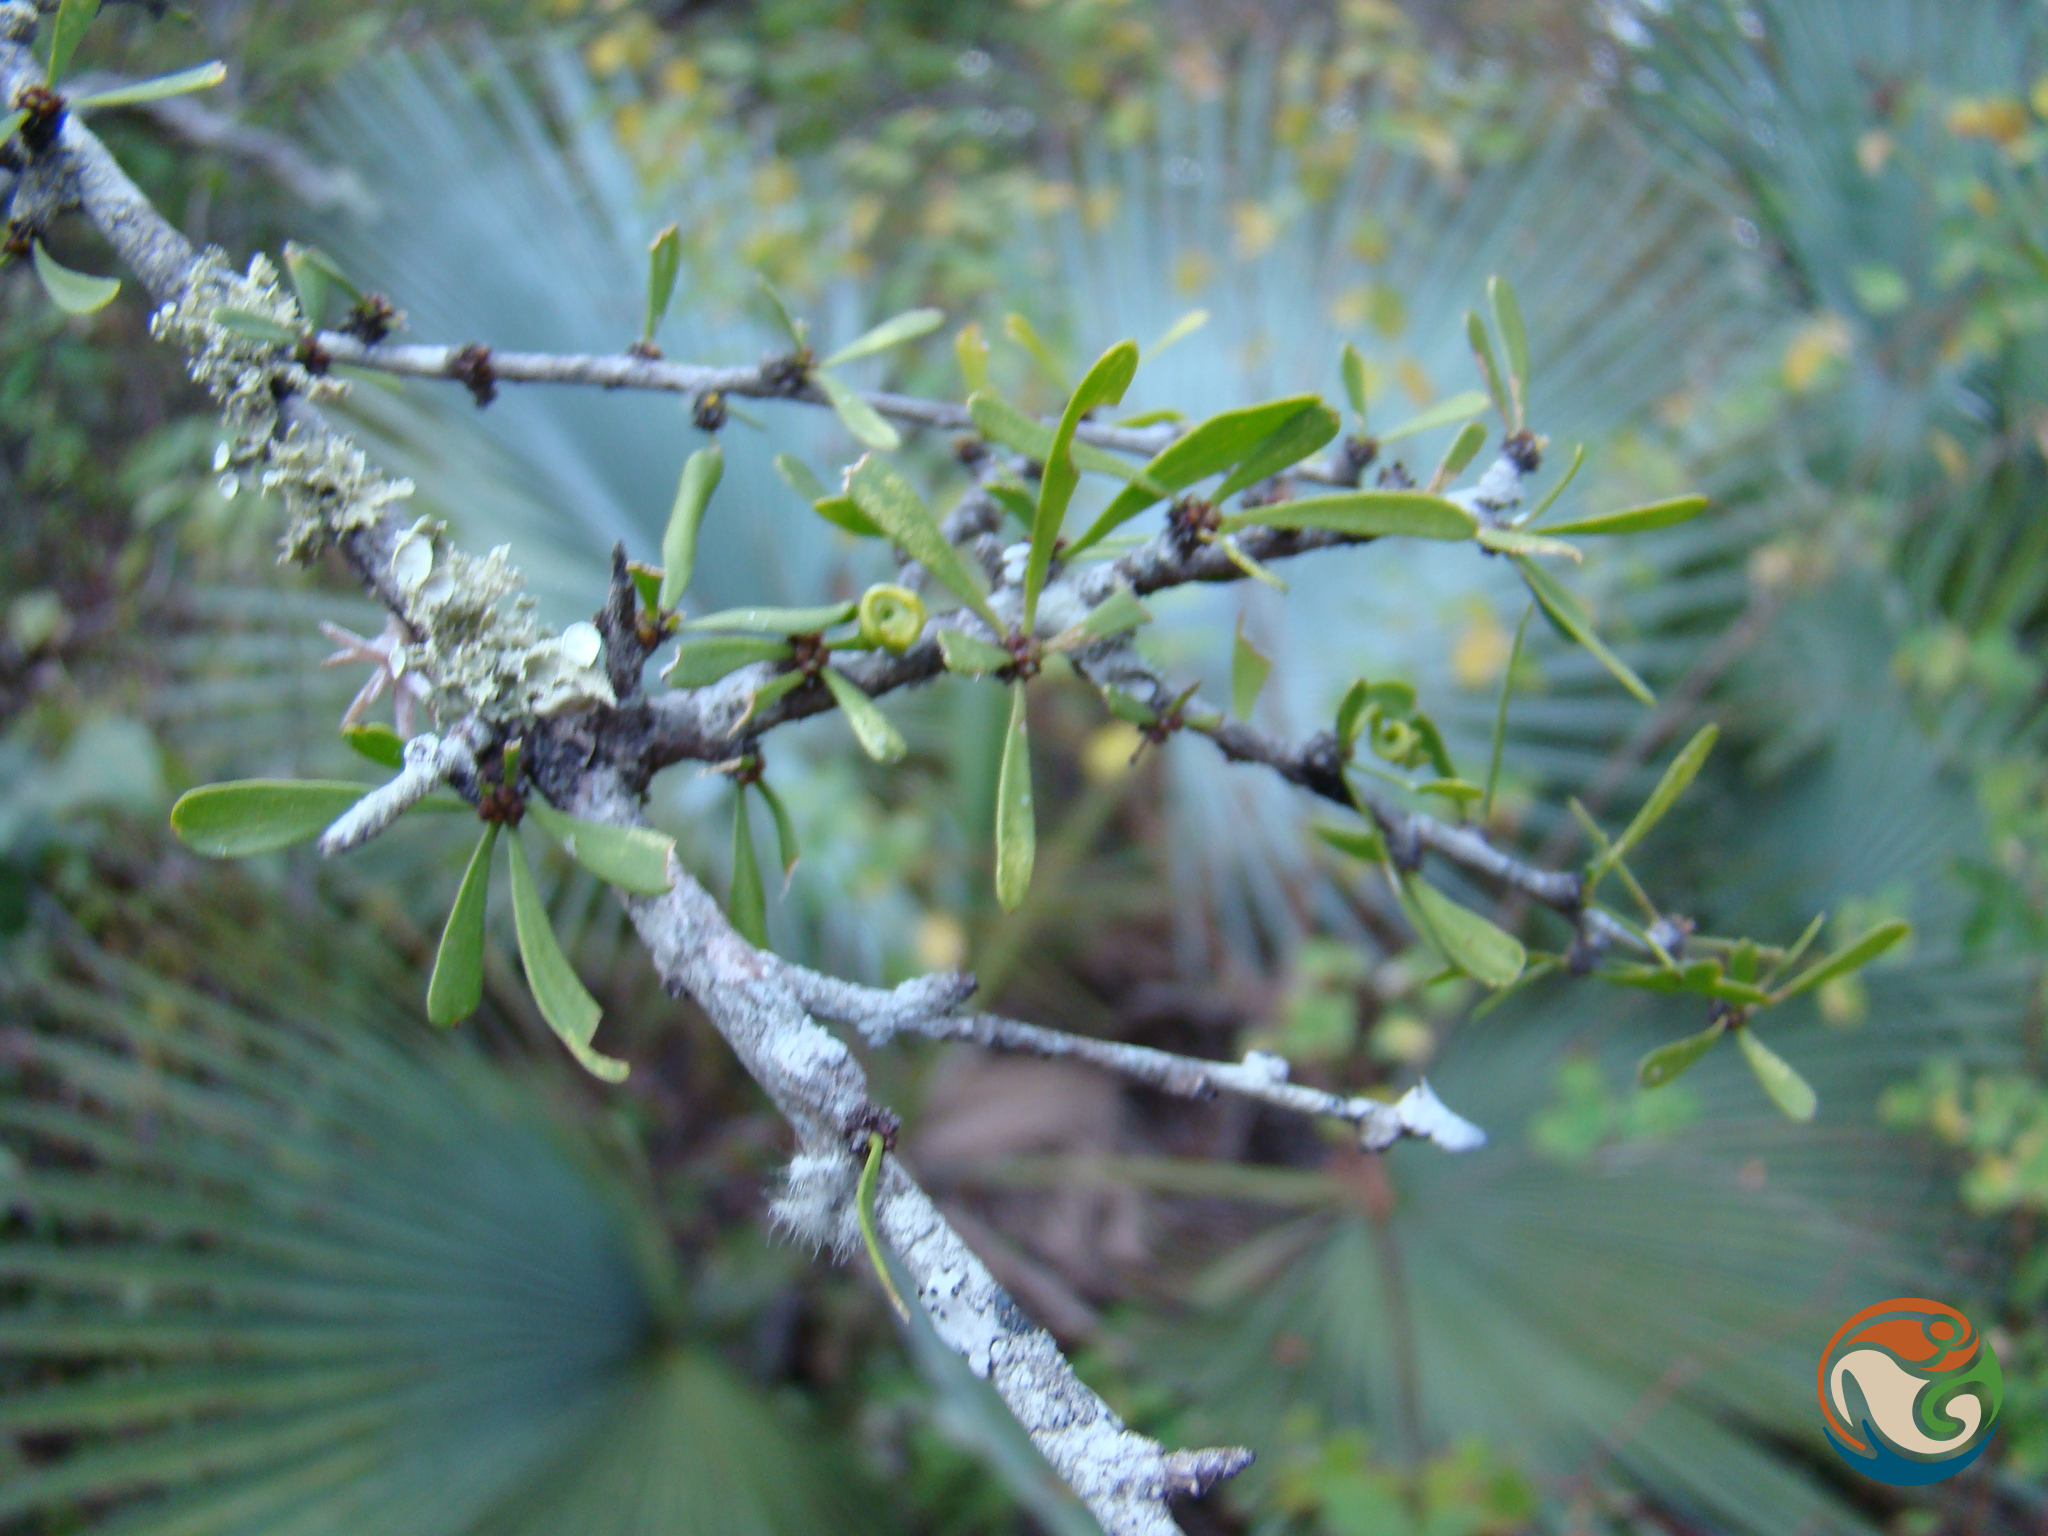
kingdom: Plantae
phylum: Tracheophyta
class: Magnoliopsida
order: Celastrales
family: Celastraceae
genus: Schaefferia
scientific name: Schaefferia stenophylla
